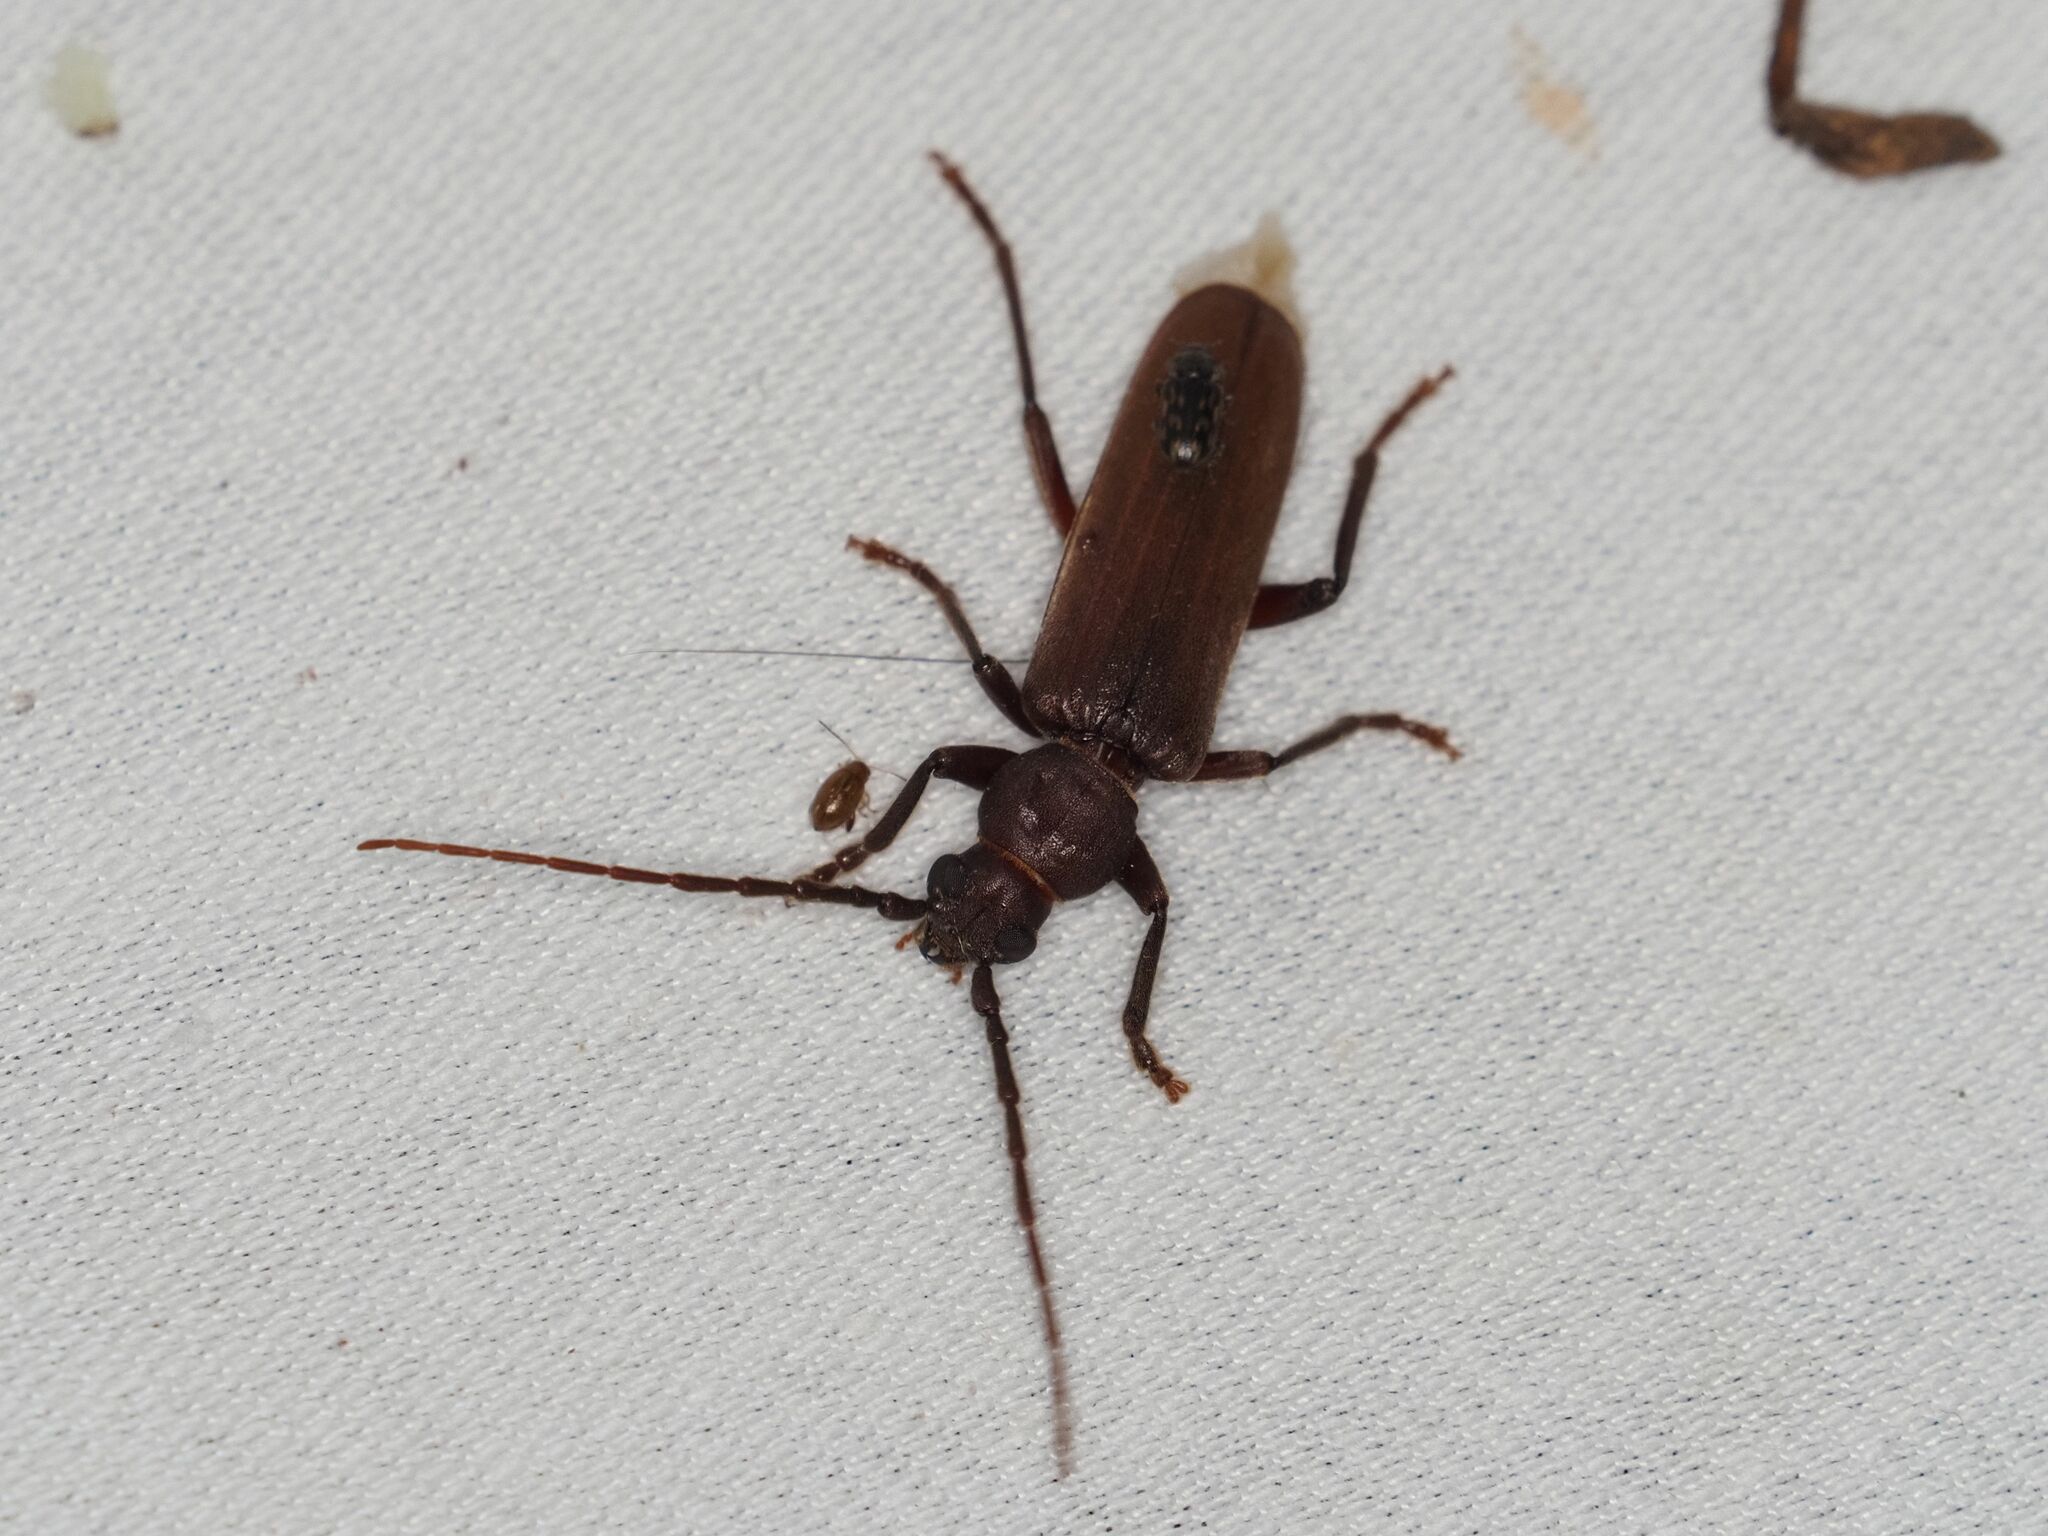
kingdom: Animalia
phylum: Arthropoda
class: Insecta
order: Coleoptera
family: Cerambycidae
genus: Arhopalus
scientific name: Arhopalus rusticus
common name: Rust pine borer
